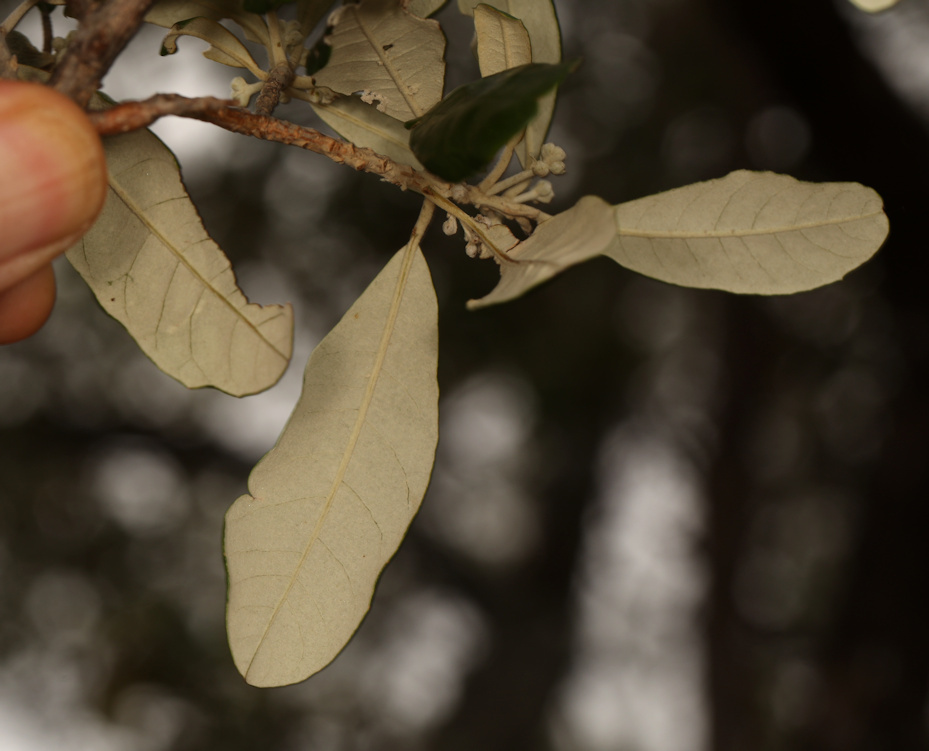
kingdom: Plantae
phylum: Tracheophyta
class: Magnoliopsida
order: Asterales
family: Asteraceae
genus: Brachylaena
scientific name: Brachylaena huillensis
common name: Silver-oak
